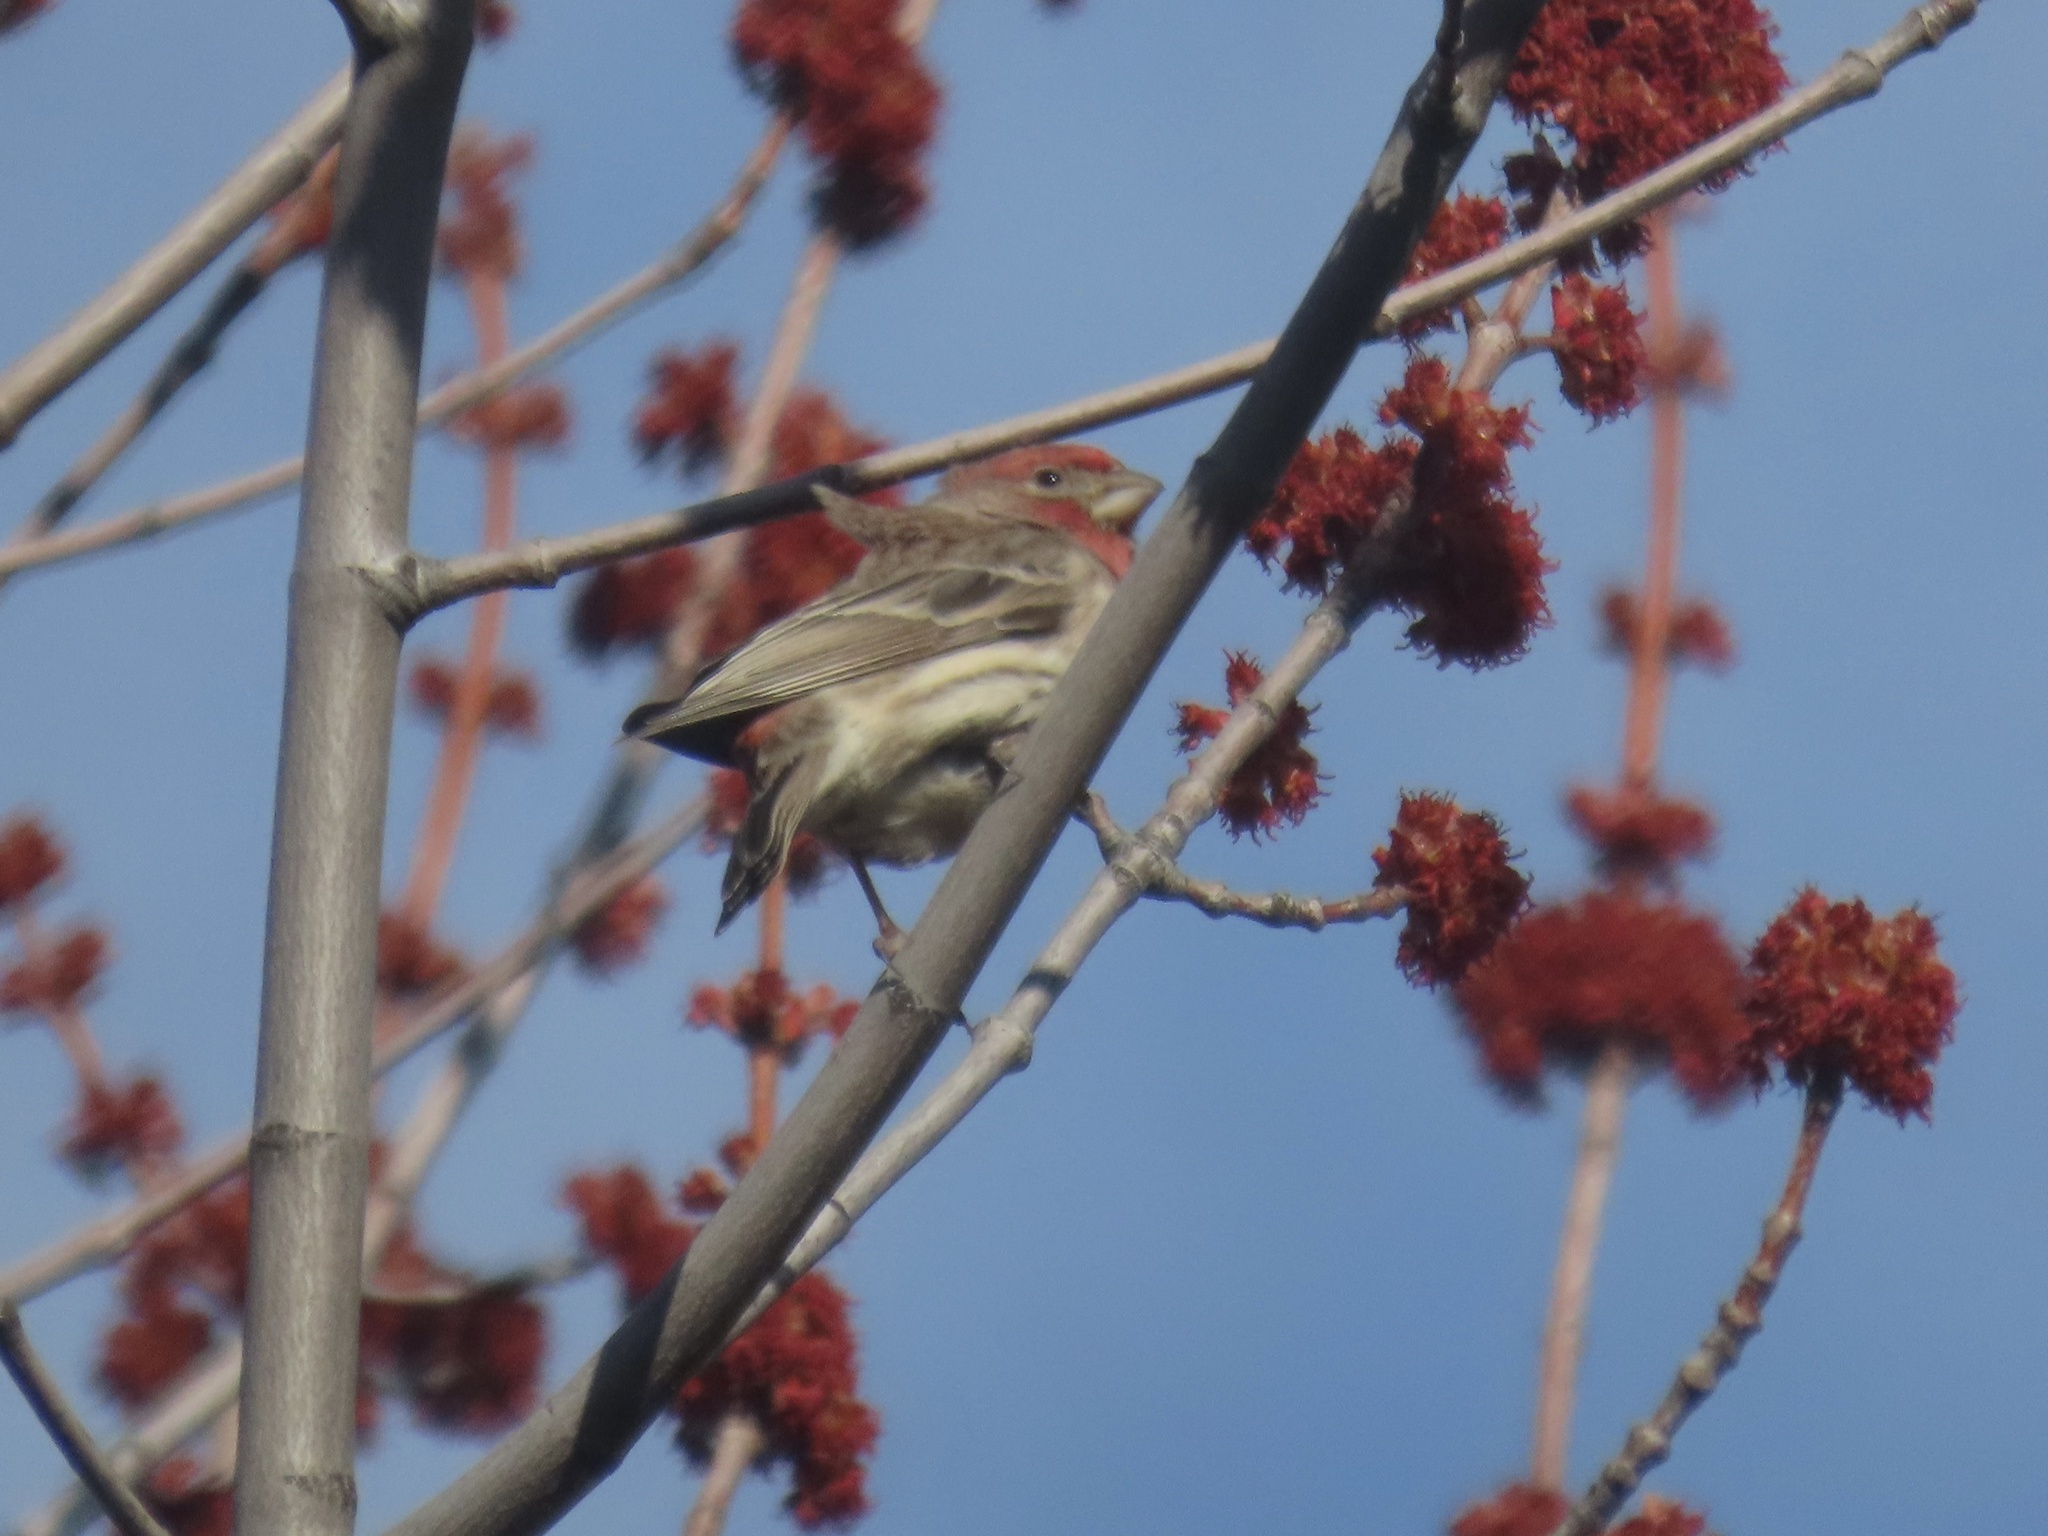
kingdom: Animalia
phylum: Chordata
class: Aves
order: Passeriformes
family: Fringillidae
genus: Haemorhous
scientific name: Haemorhous mexicanus
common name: House finch
